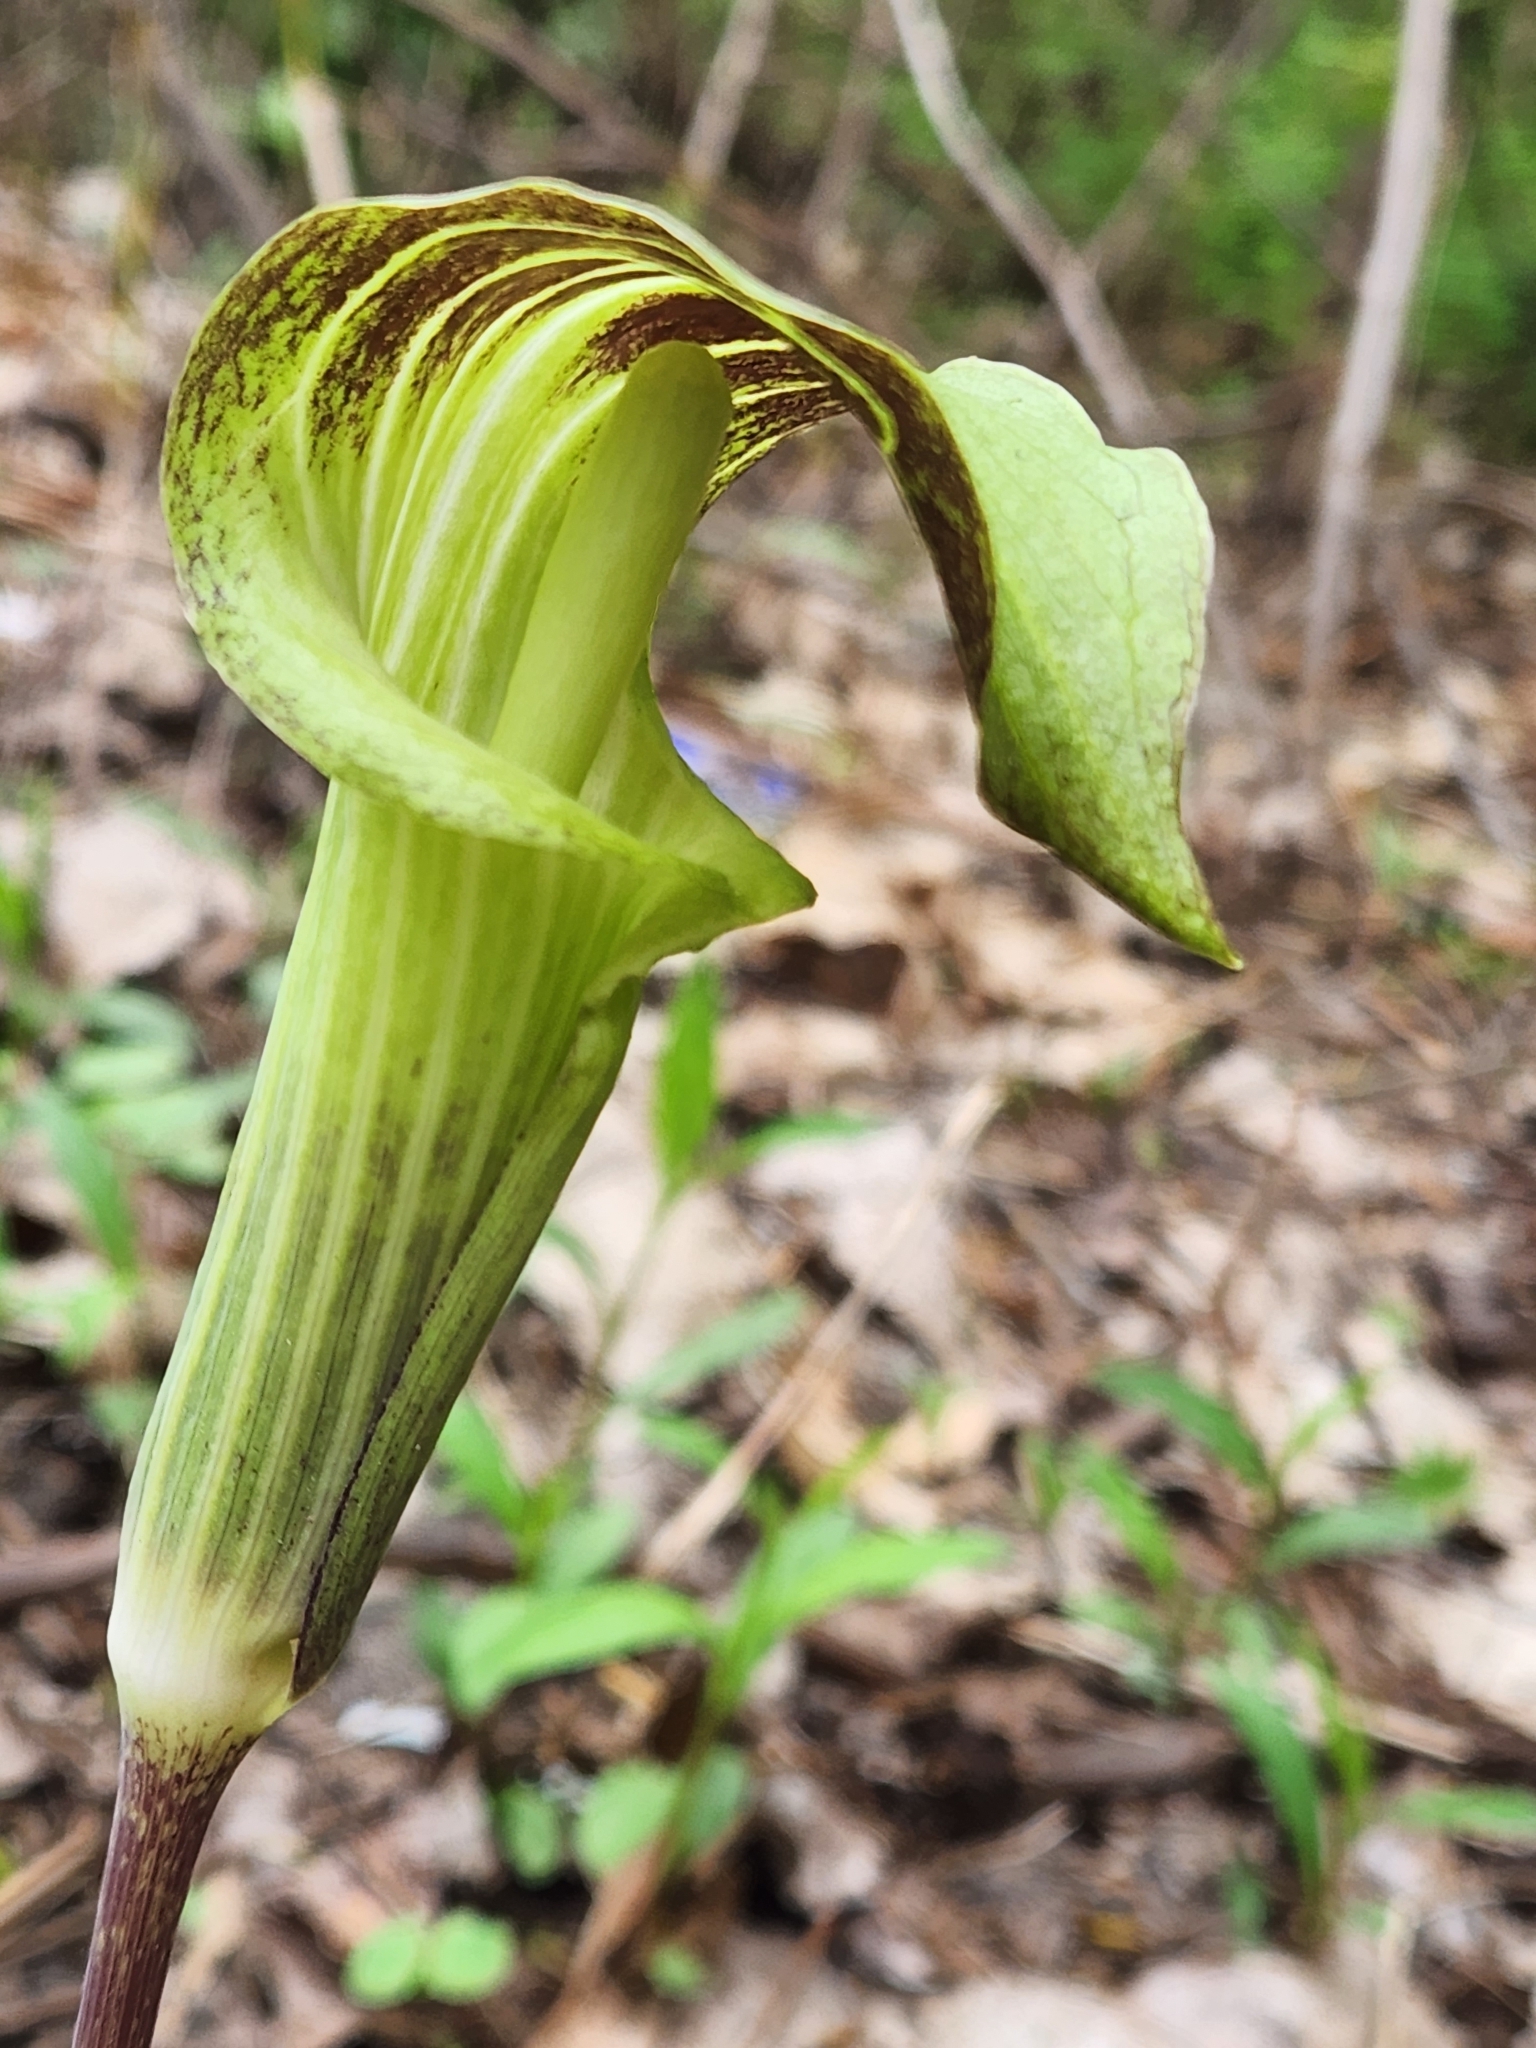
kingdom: Plantae
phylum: Tracheophyta
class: Liliopsida
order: Alismatales
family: Araceae
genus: Arisaema
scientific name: Arisaema triphyllum
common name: Jack-in-the-pulpit
